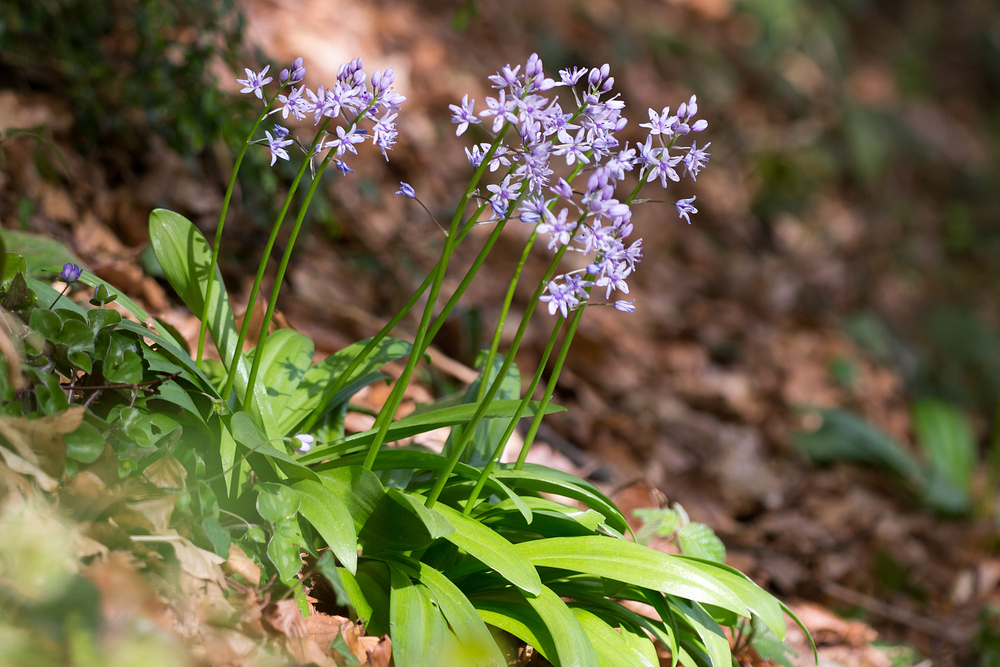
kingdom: Plantae
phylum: Tracheophyta
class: Liliopsida
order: Asparagales
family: Asparagaceae
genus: Scilla
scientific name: Scilla lilio-hyacinthus
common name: Pyrenean squill
